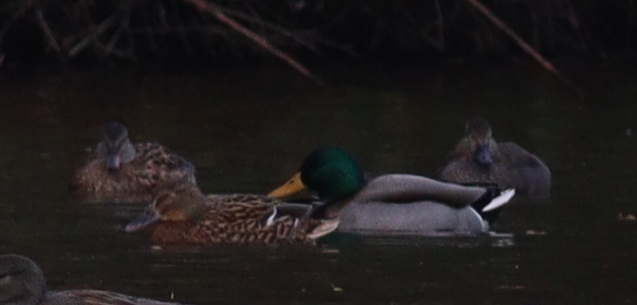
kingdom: Animalia
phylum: Chordata
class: Aves
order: Anseriformes
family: Anatidae
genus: Anas
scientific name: Anas platyrhynchos
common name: Mallard
